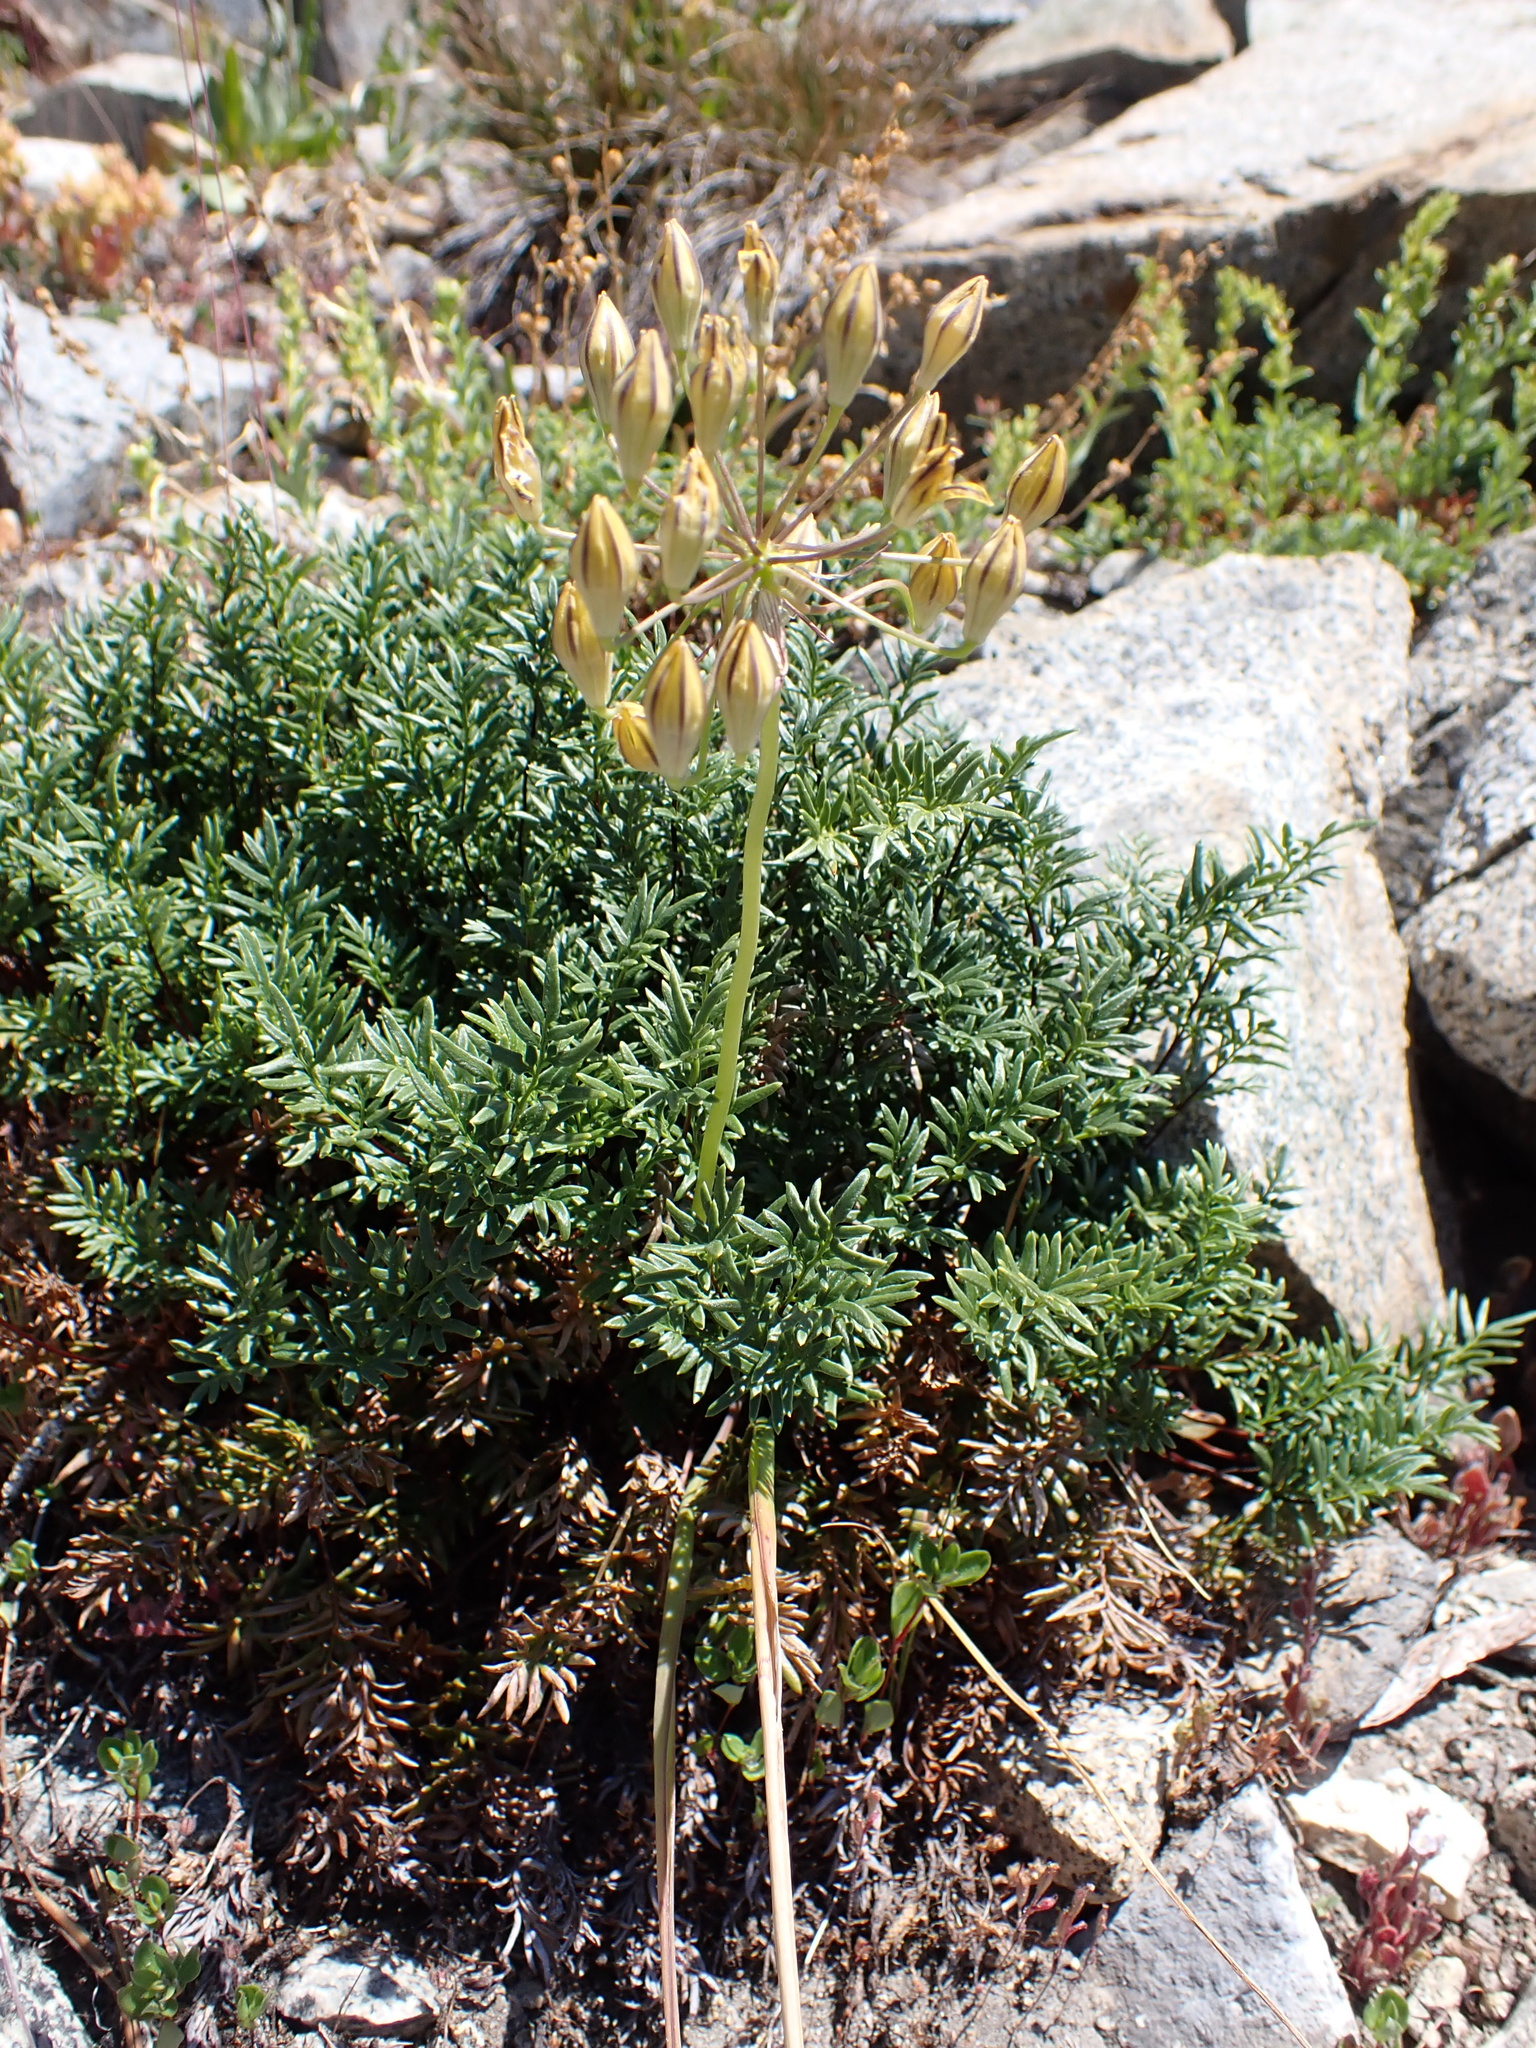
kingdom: Plantae
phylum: Tracheophyta
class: Liliopsida
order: Asparagales
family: Asparagaceae
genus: Triteleia
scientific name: Triteleia ixioides
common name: Yellow-brodiaea
